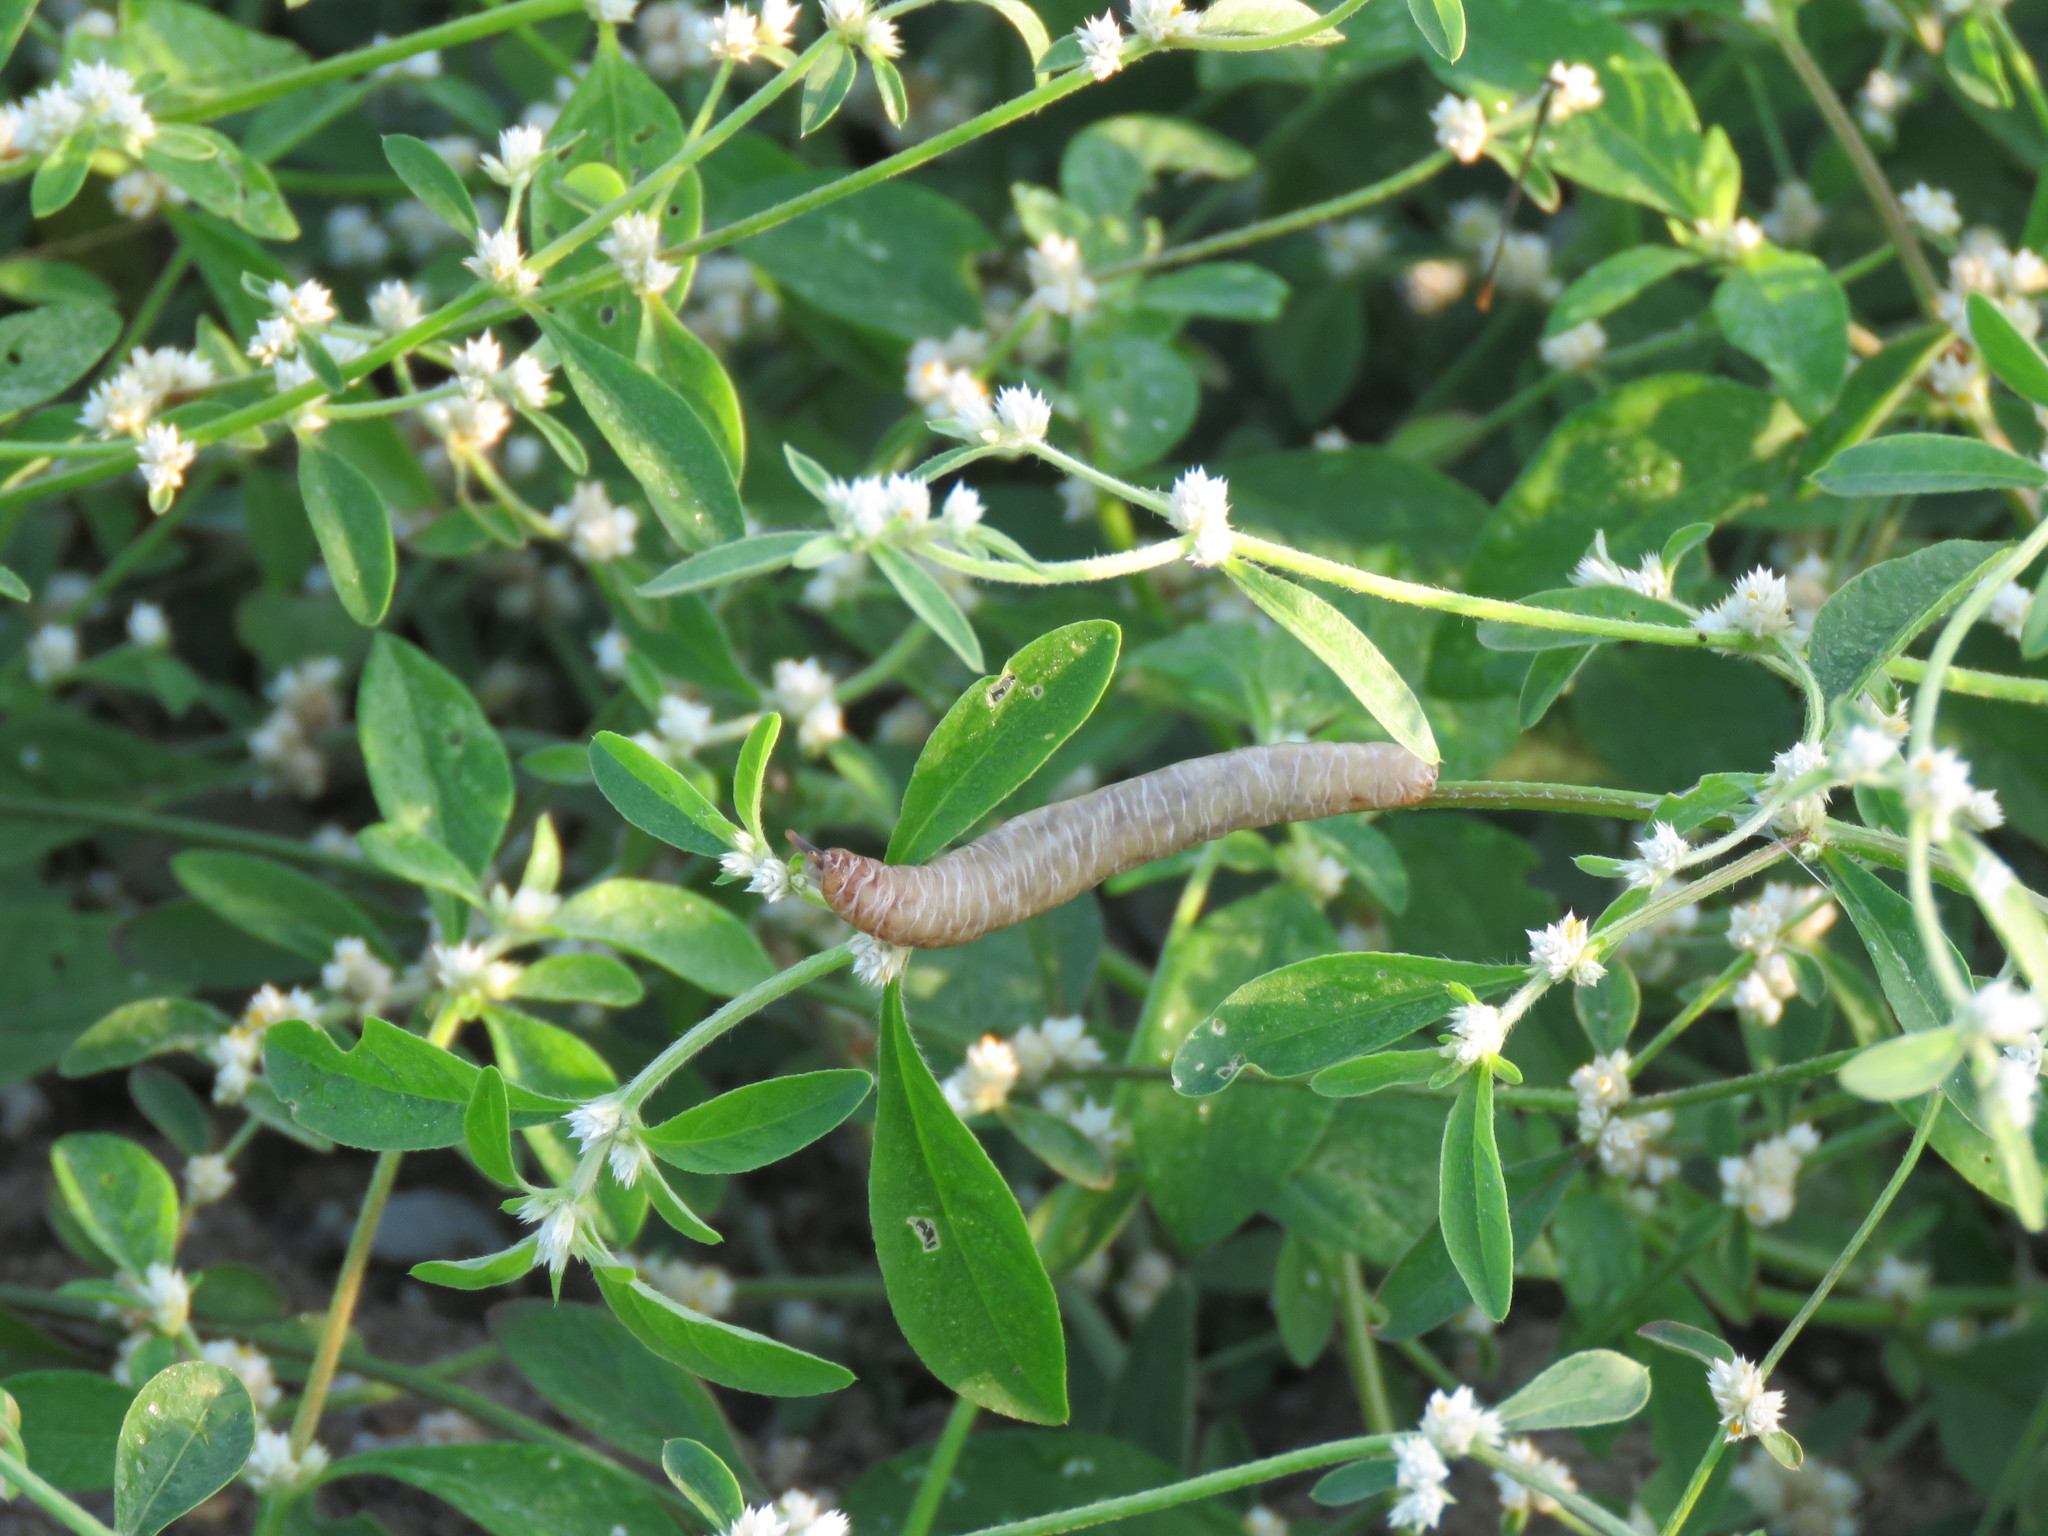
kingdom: Animalia
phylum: Mollusca
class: Gastropoda
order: Systellommatophora
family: Veronicellidae
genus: Laevicaulis
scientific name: Laevicaulis haroldi
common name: Caterpillar slug
